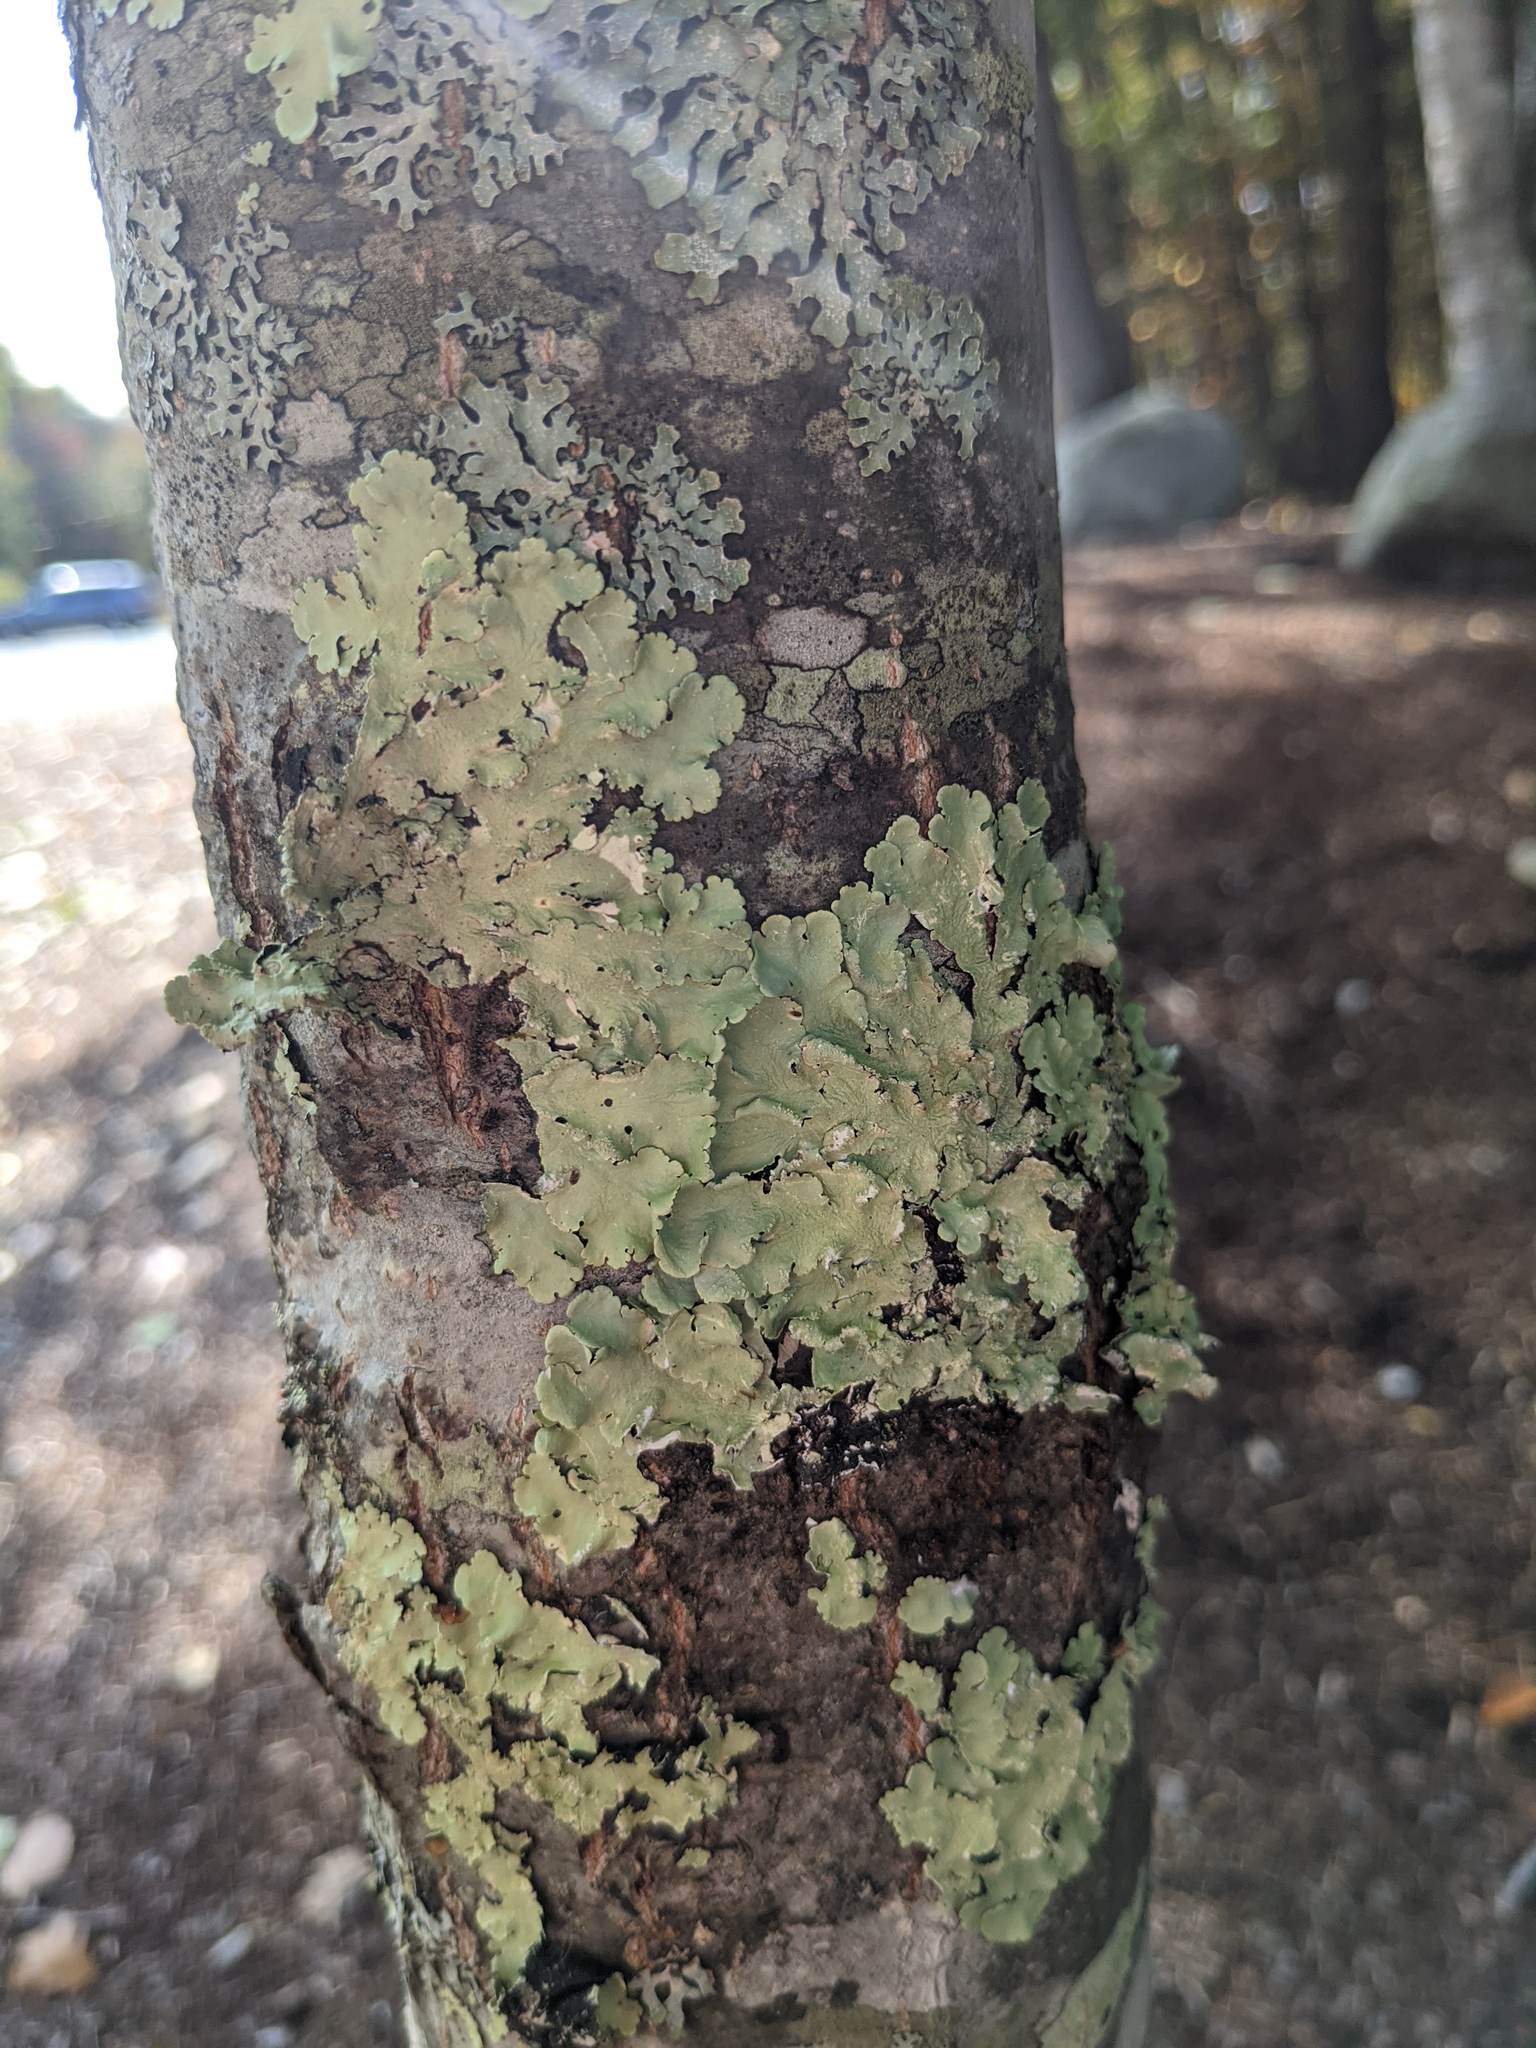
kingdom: Fungi
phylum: Ascomycota
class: Lecanoromycetes
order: Lecanorales
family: Parmeliaceae
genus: Flavoparmelia
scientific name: Flavoparmelia caperata
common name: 40-mile per hour lichen
